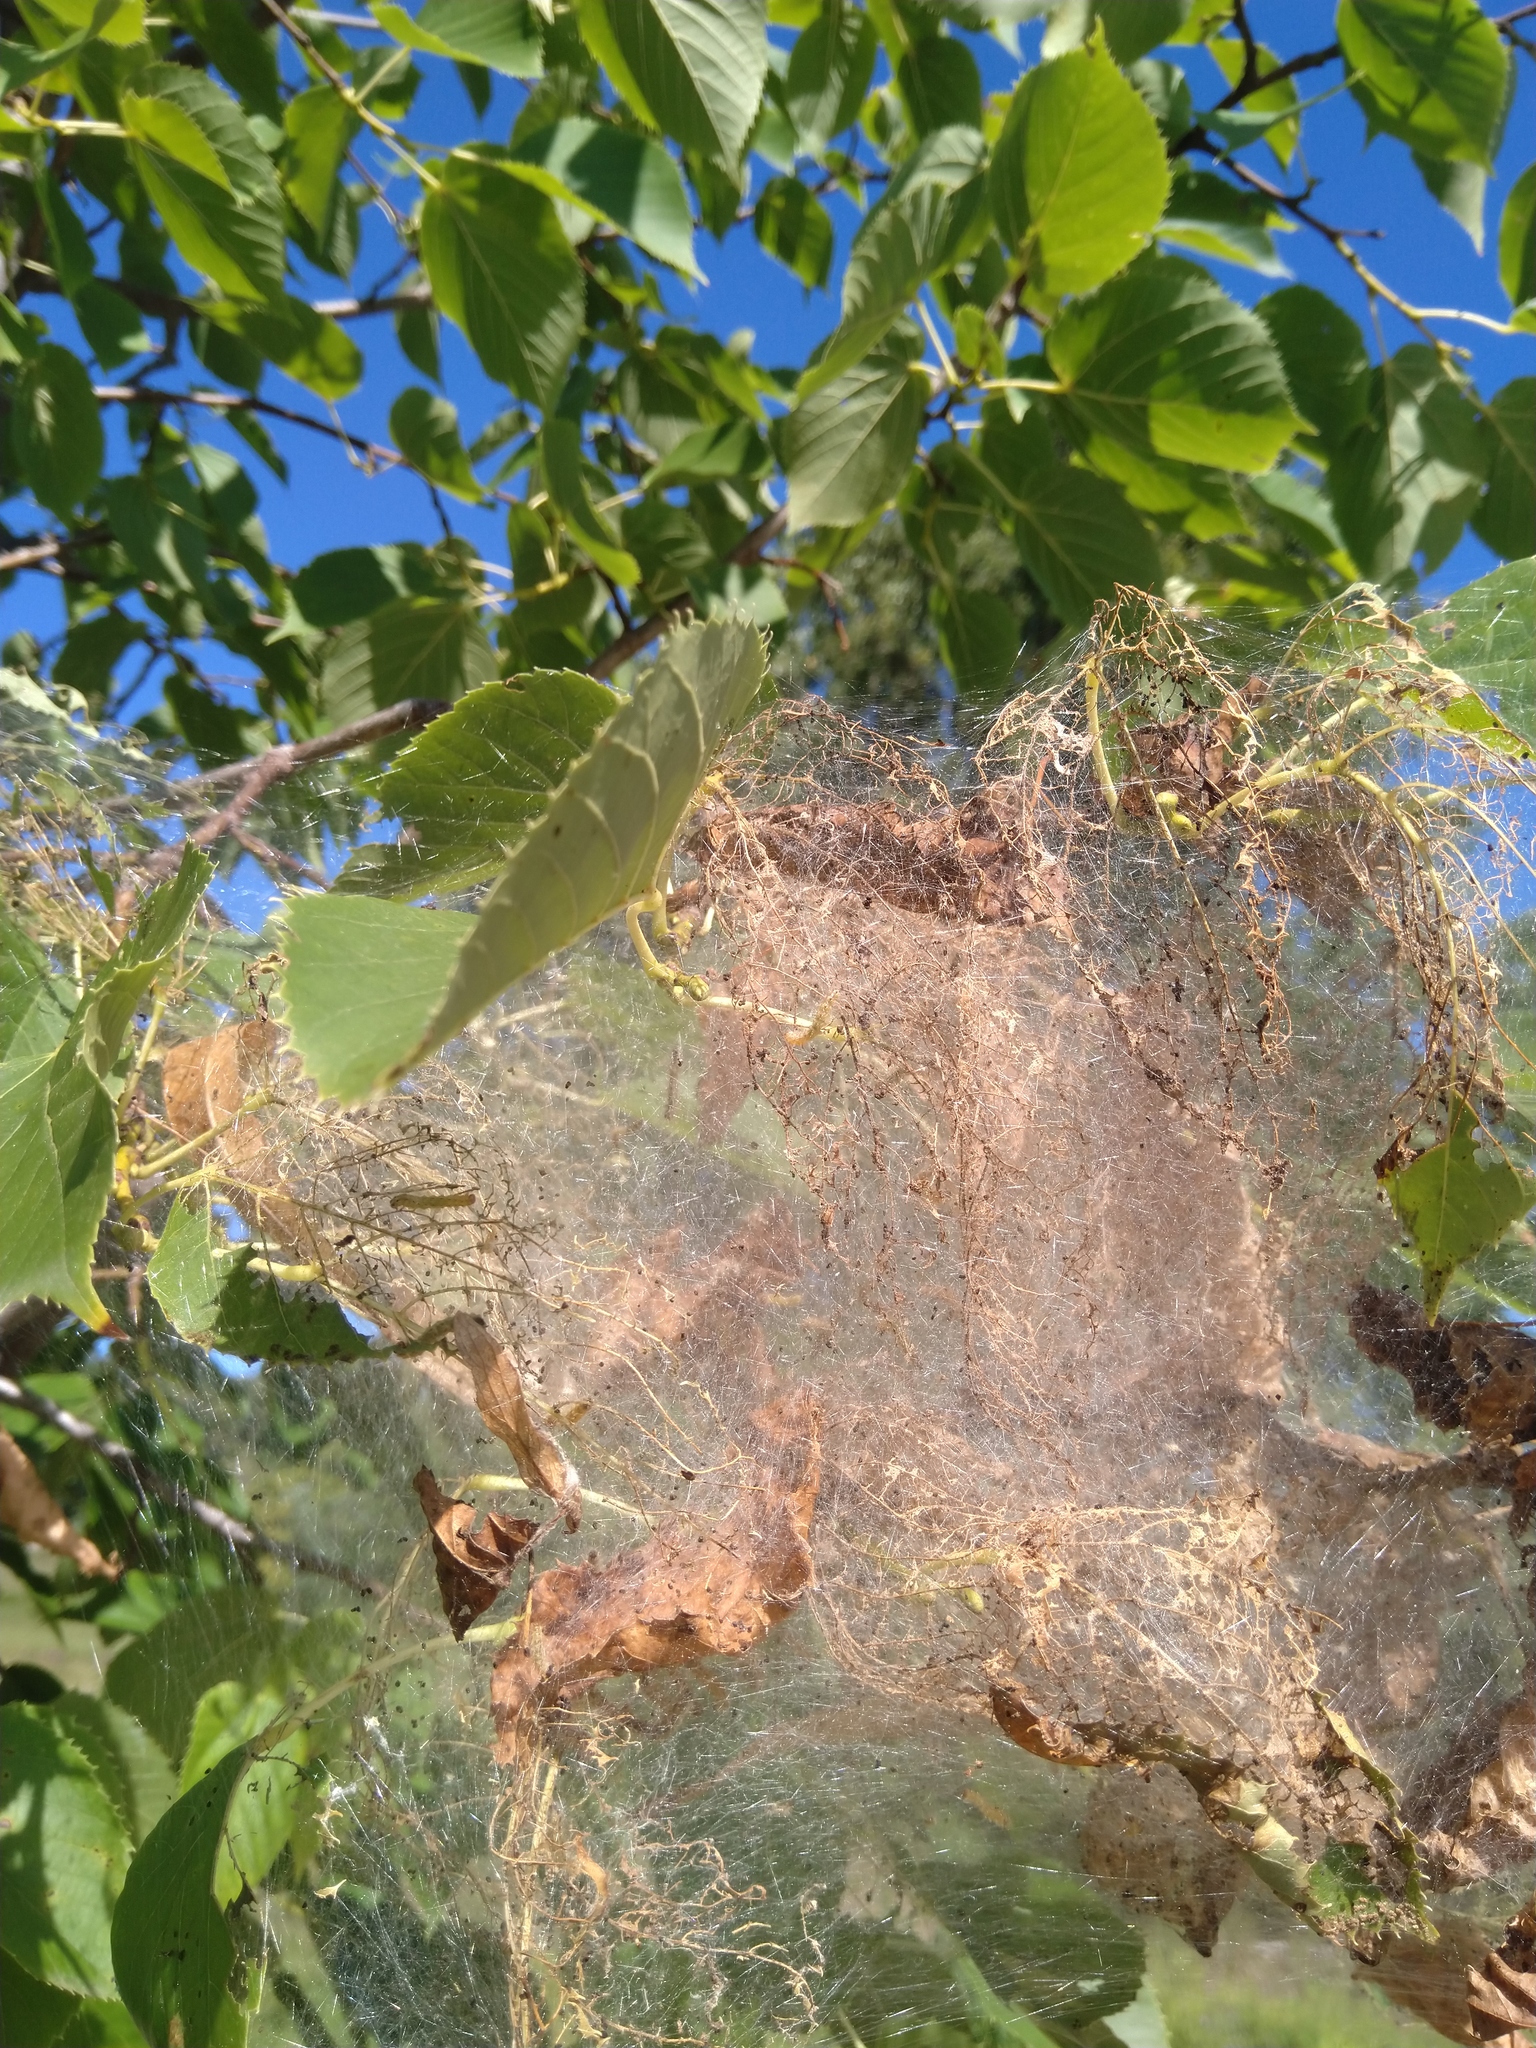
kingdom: Animalia
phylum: Arthropoda
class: Insecta
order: Lepidoptera
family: Erebidae
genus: Hyphantria
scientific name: Hyphantria cunea
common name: American white moth
